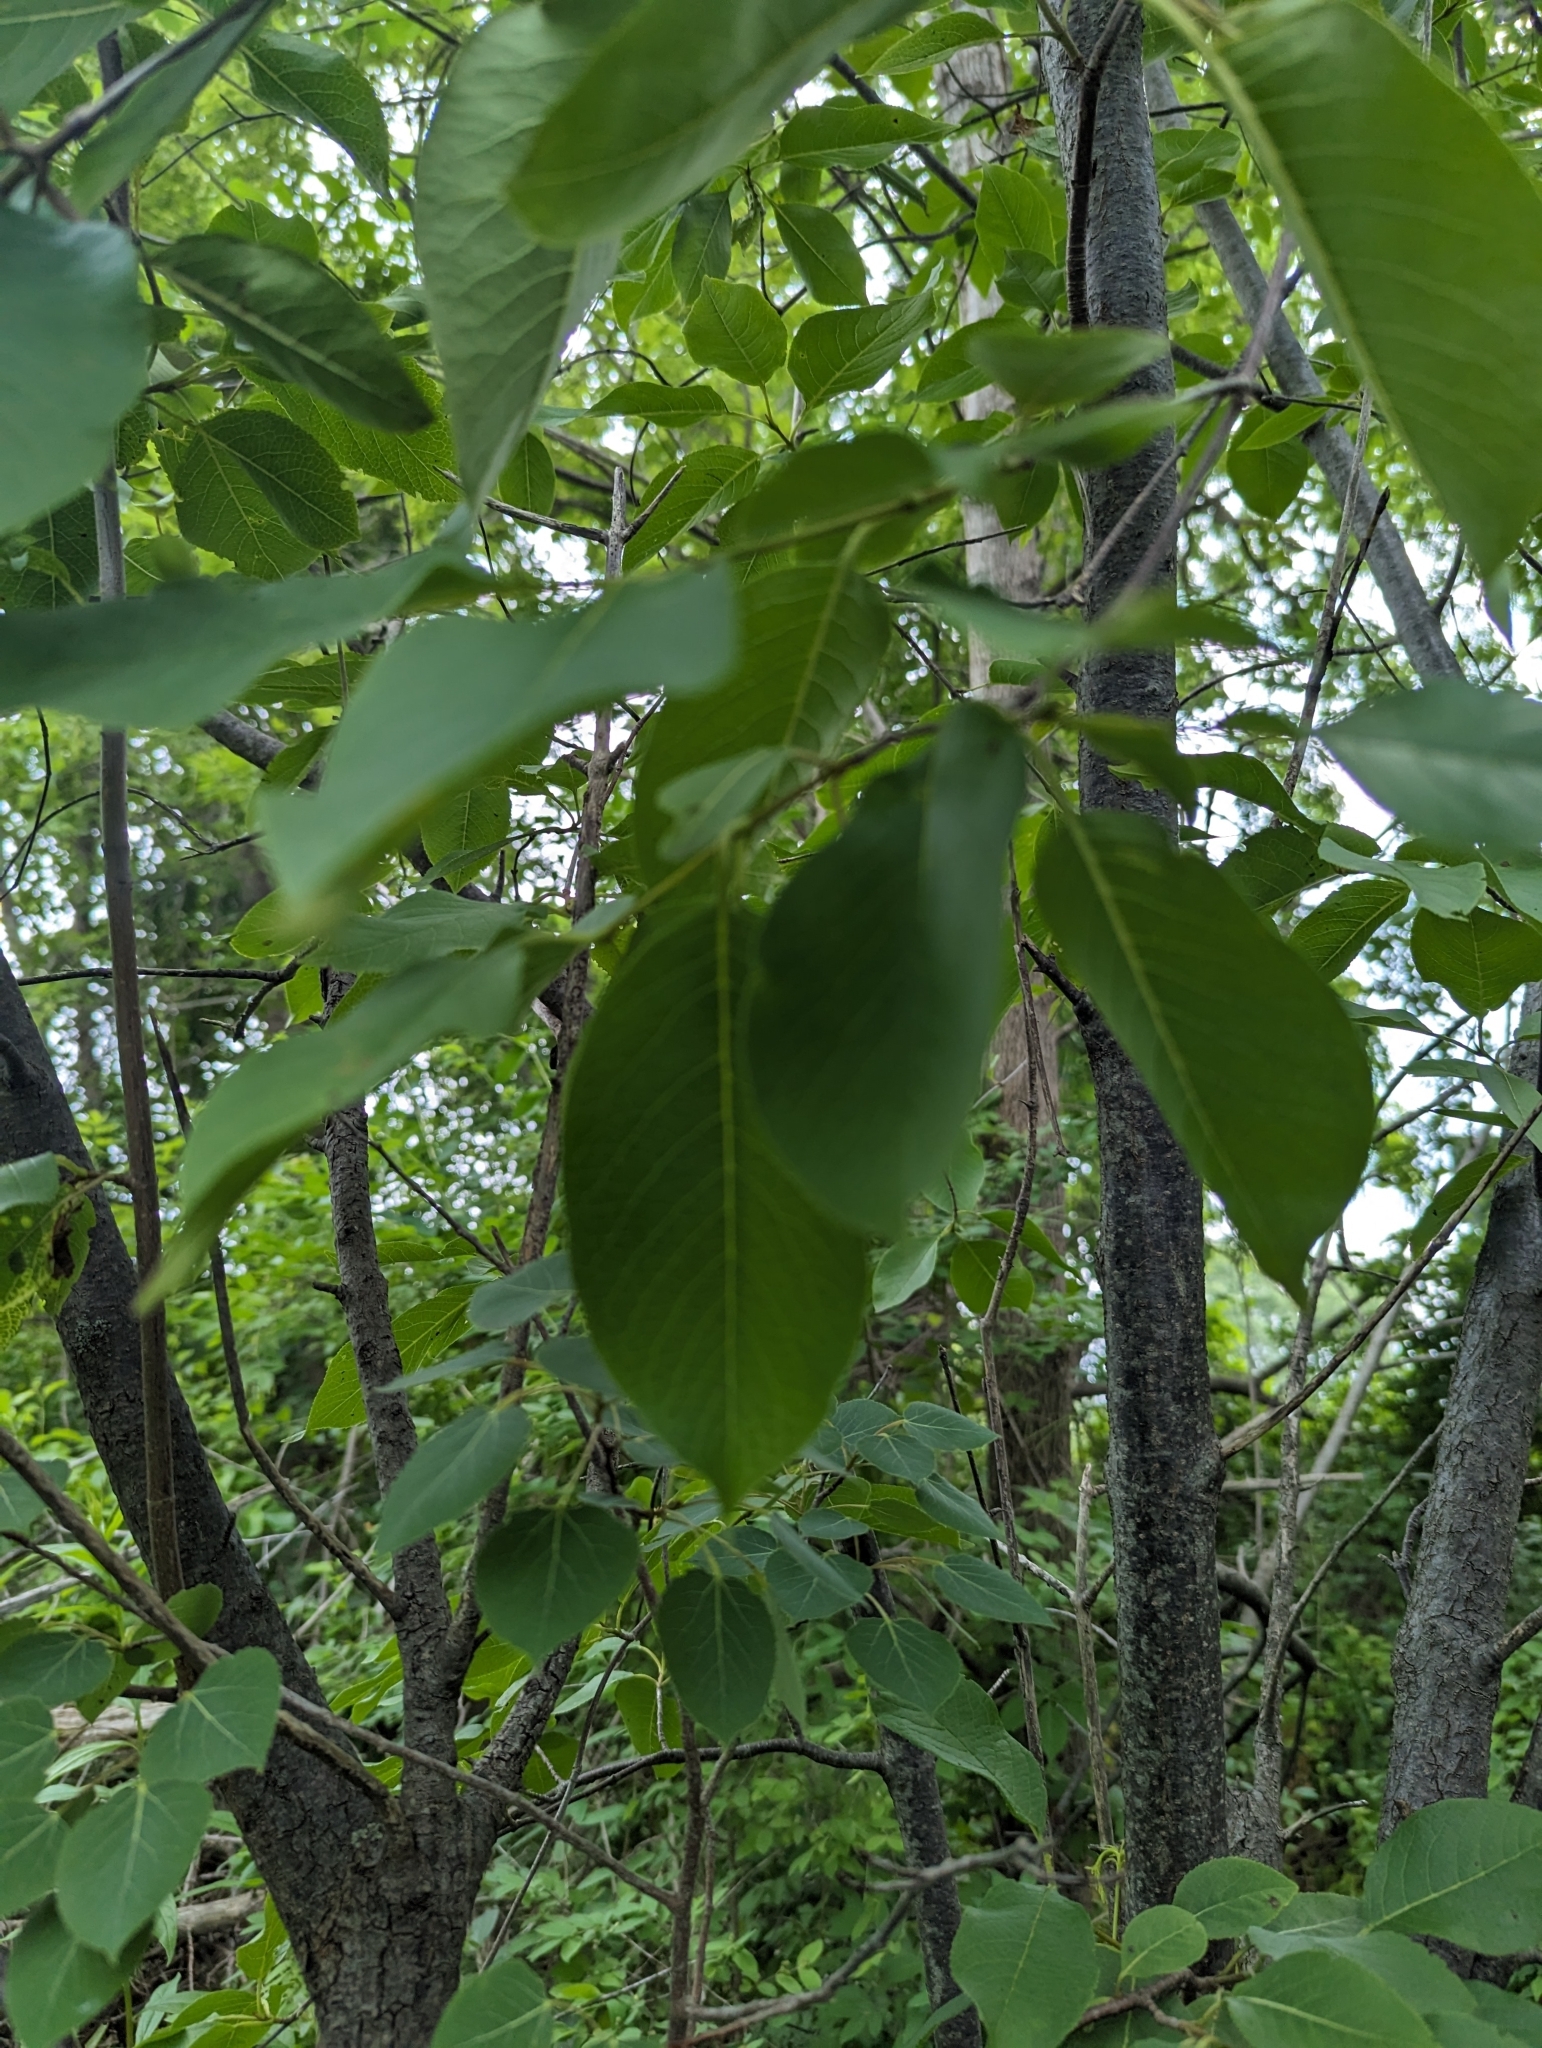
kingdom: Plantae
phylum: Tracheophyta
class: Magnoliopsida
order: Dipsacales
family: Viburnaceae
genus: Viburnum
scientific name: Viburnum lentago
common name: Black haw
